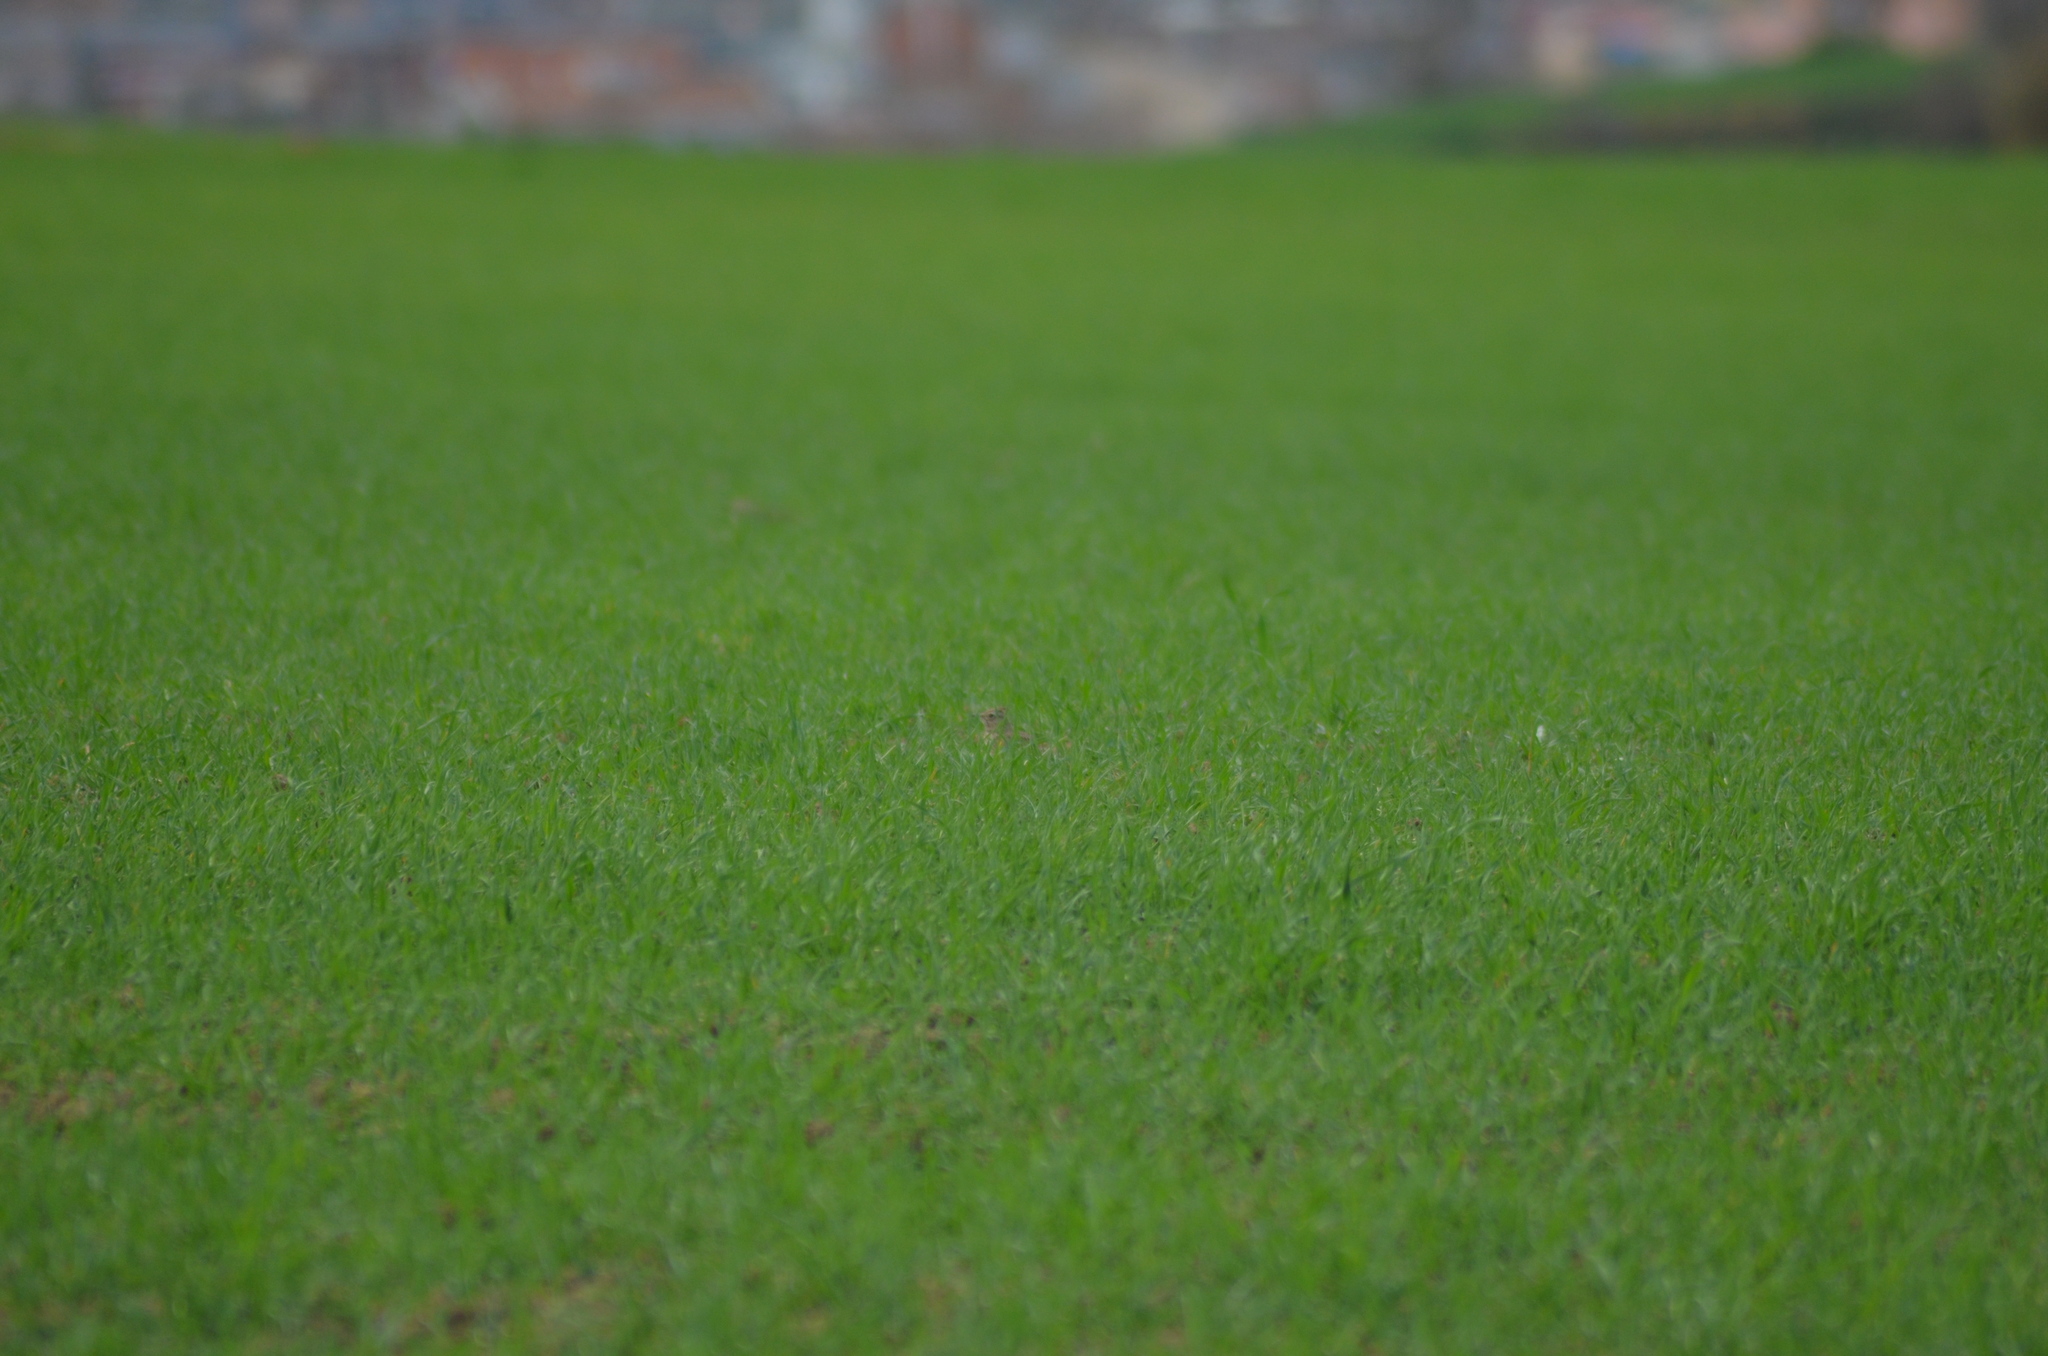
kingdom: Animalia
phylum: Chordata
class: Aves
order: Passeriformes
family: Alaudidae
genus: Galerida
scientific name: Galerida cristata
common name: Crested lark
